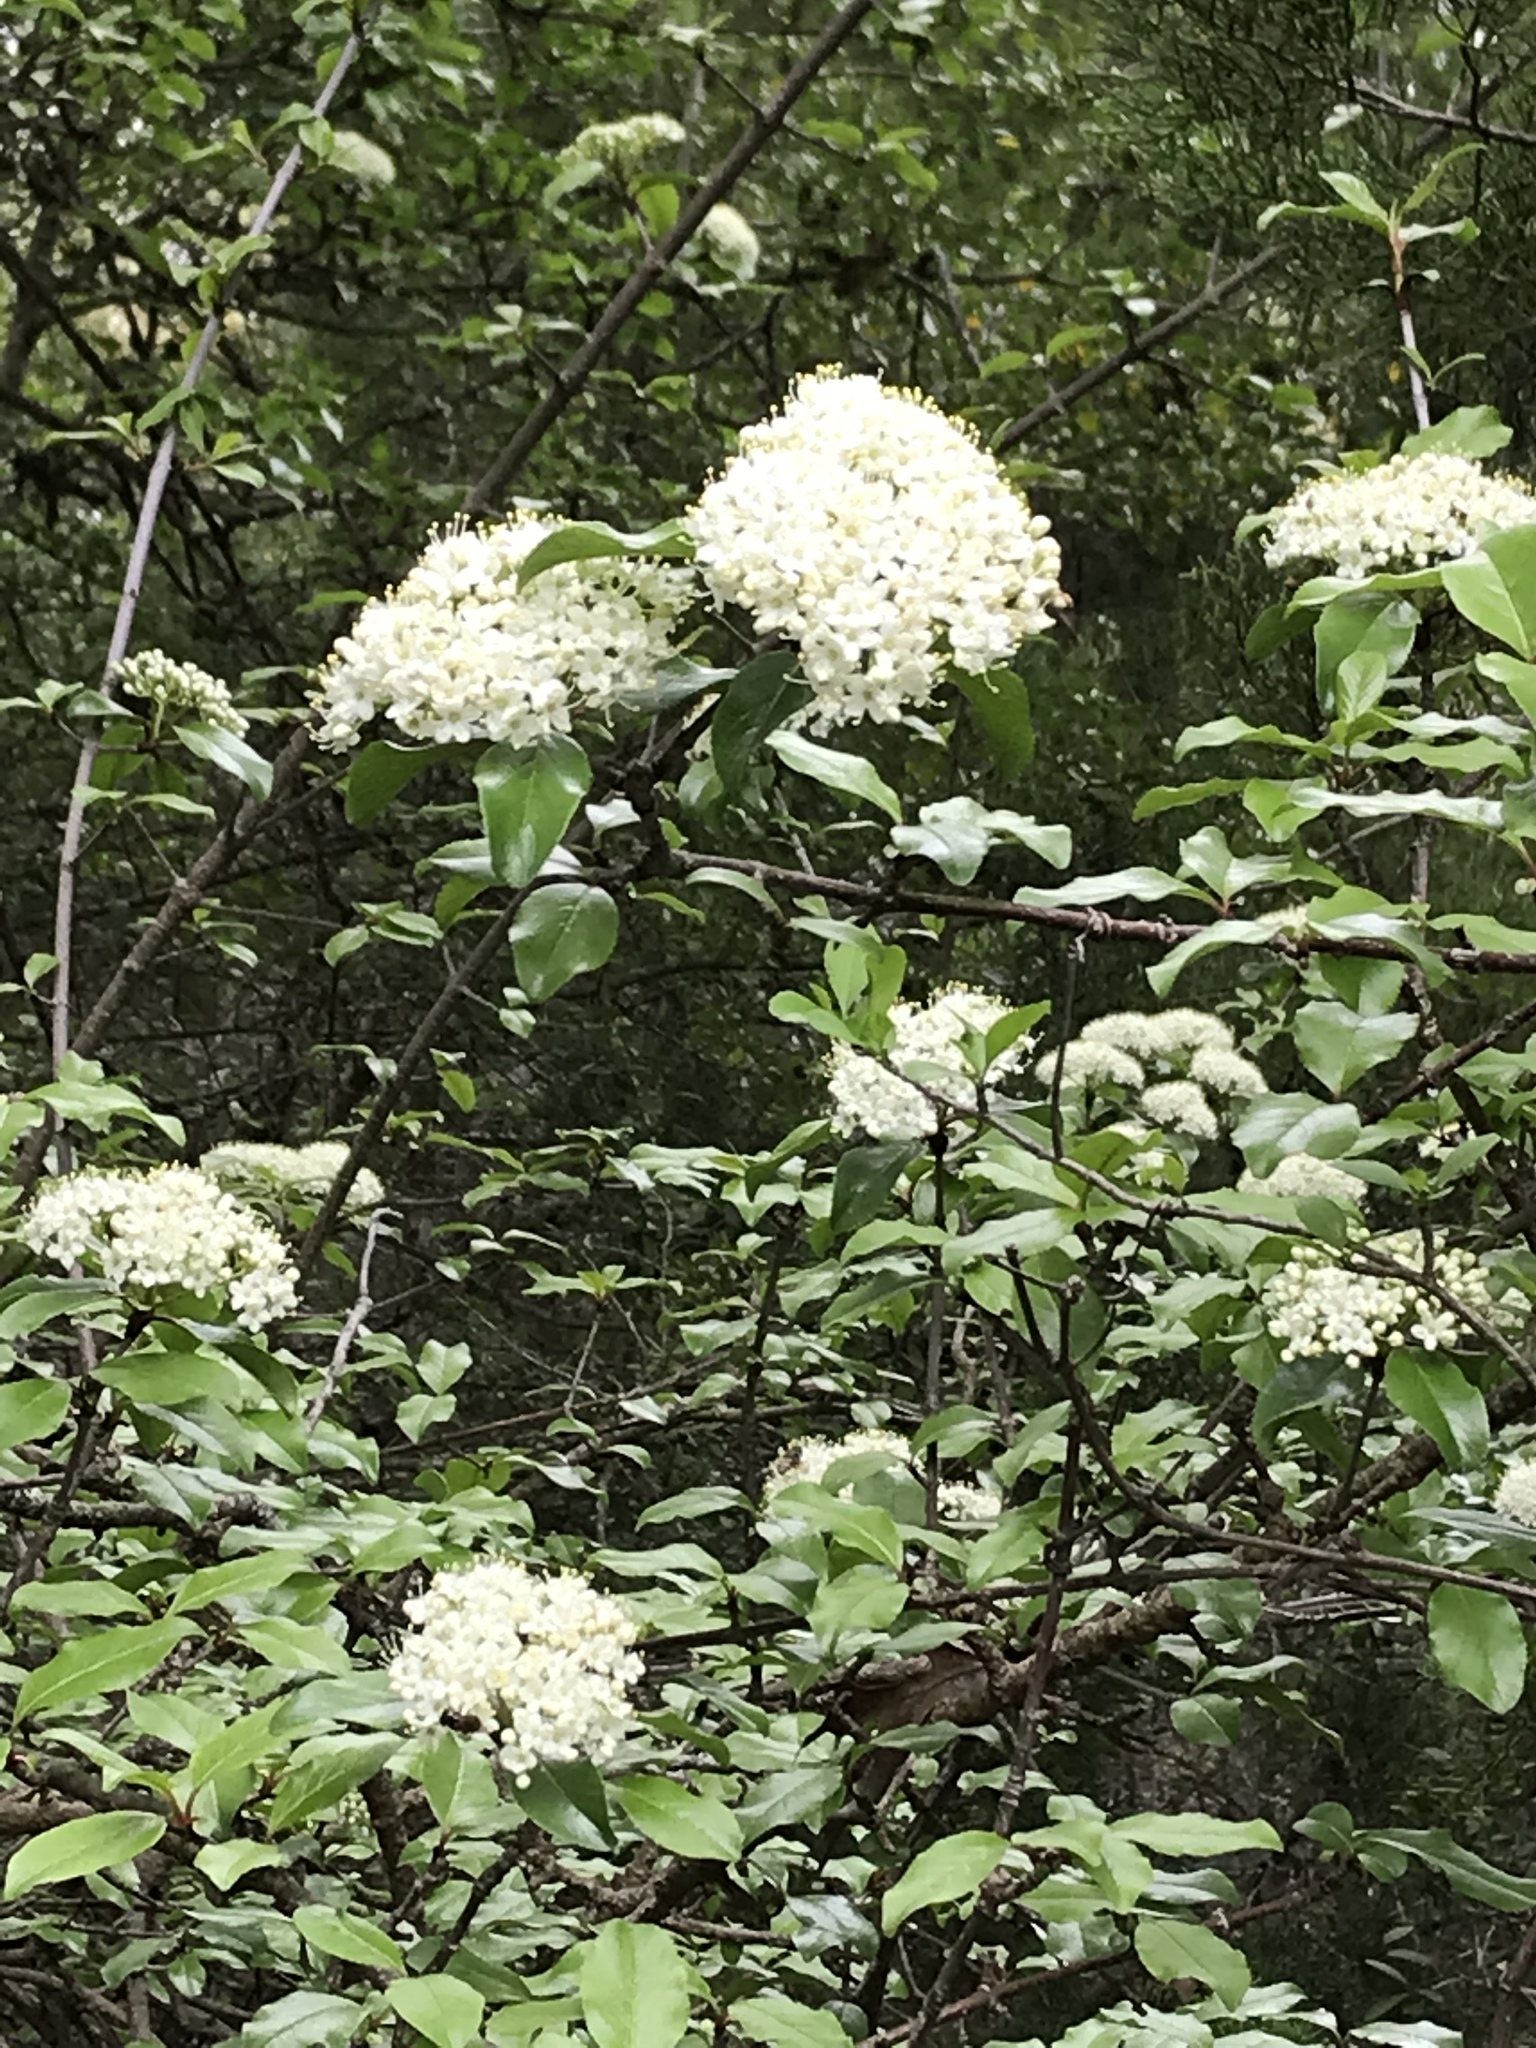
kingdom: Plantae
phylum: Tracheophyta
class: Magnoliopsida
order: Dipsacales
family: Viburnaceae
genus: Viburnum
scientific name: Viburnum rufidulum
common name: Blue haw
